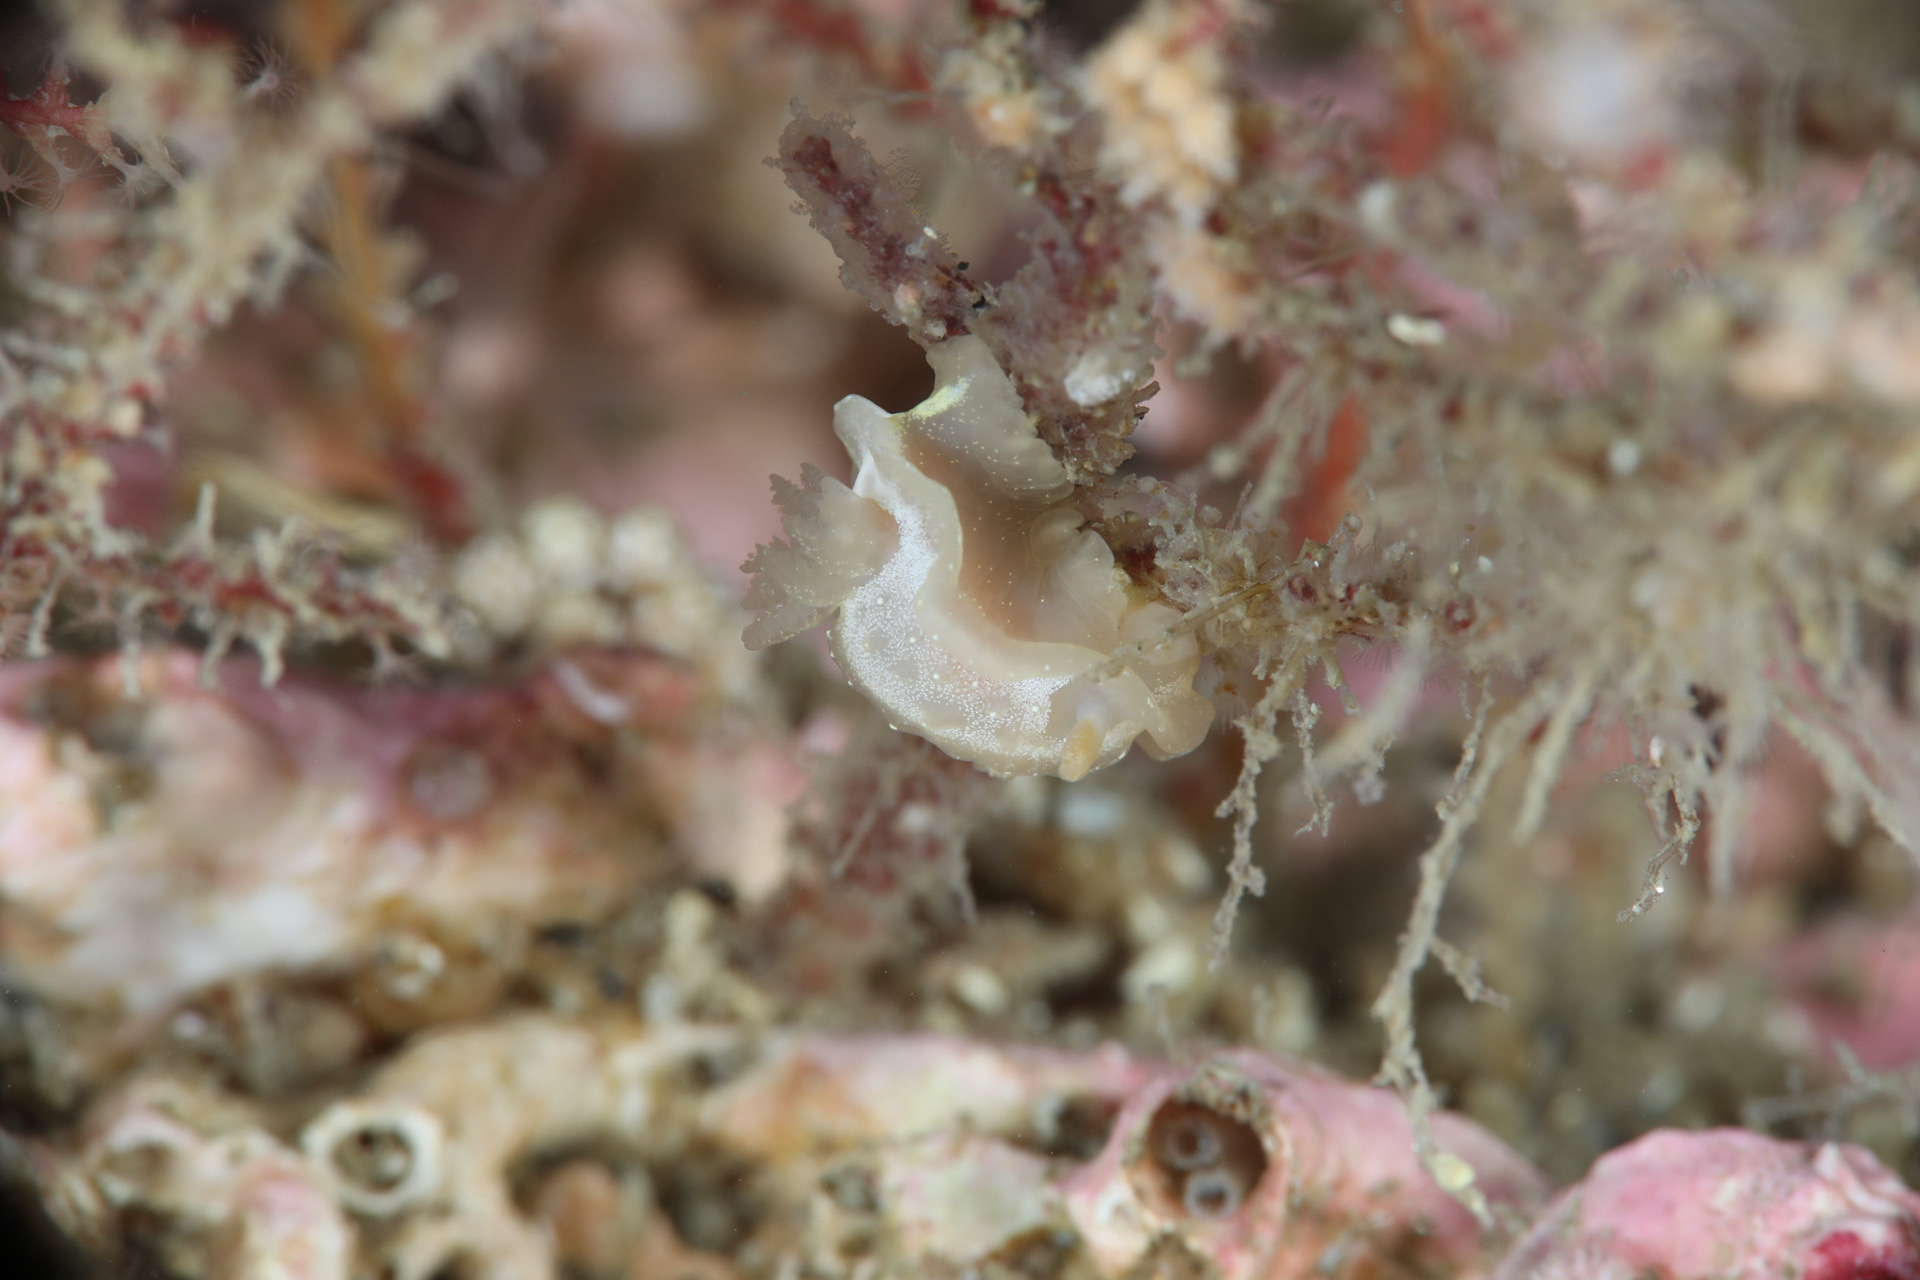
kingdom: Animalia
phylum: Mollusca
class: Gastropoda
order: Nudibranchia
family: Goniodorididae
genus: Okenia
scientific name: Okenia
